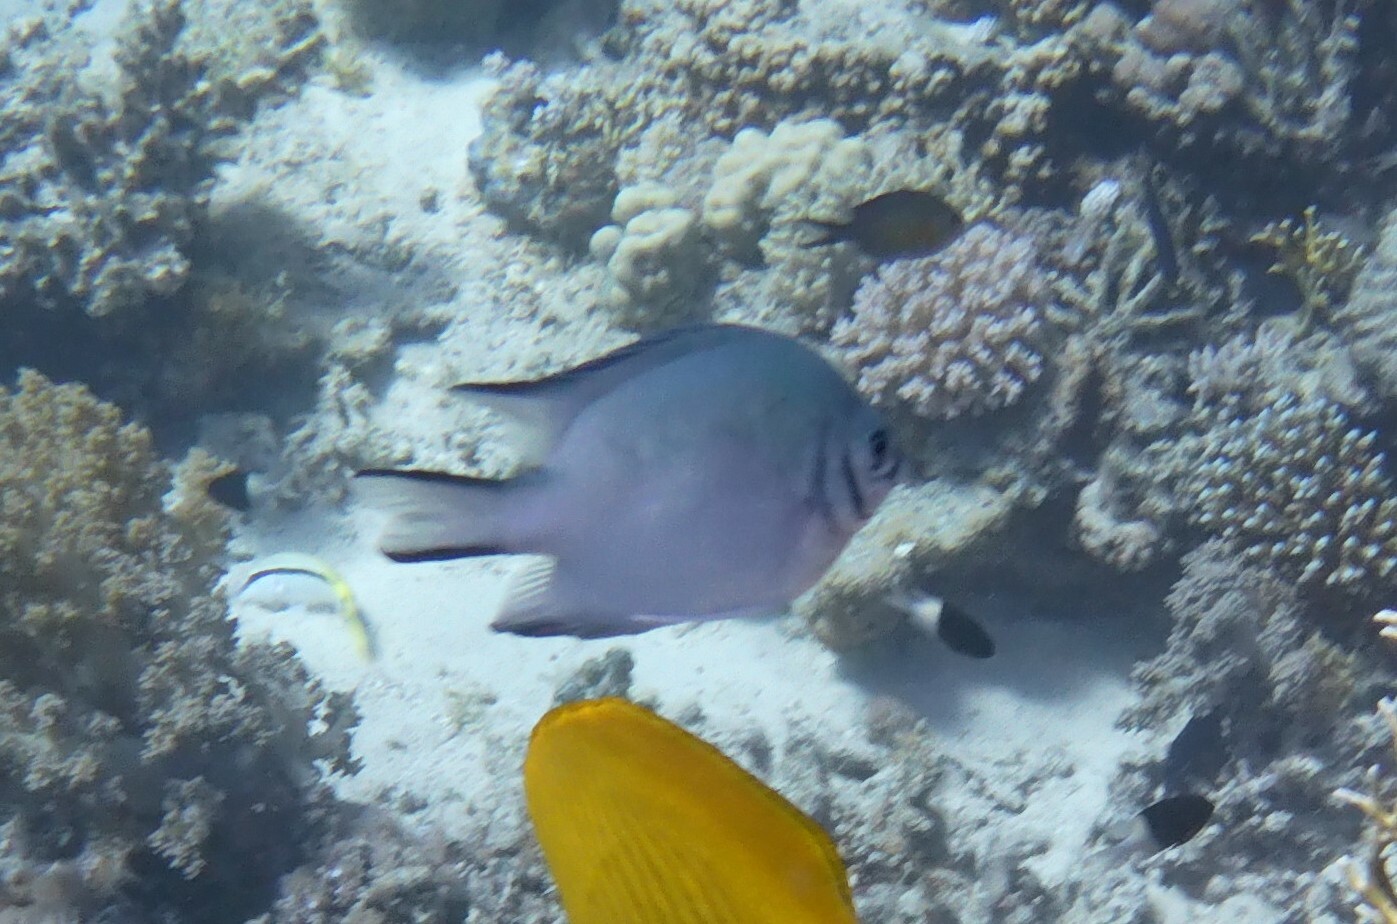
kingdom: Animalia
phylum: Chordata
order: Perciformes
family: Pomacentridae
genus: Amblyglyphidodon
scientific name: Amblyglyphidodon indicus
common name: Maldives damselfish
